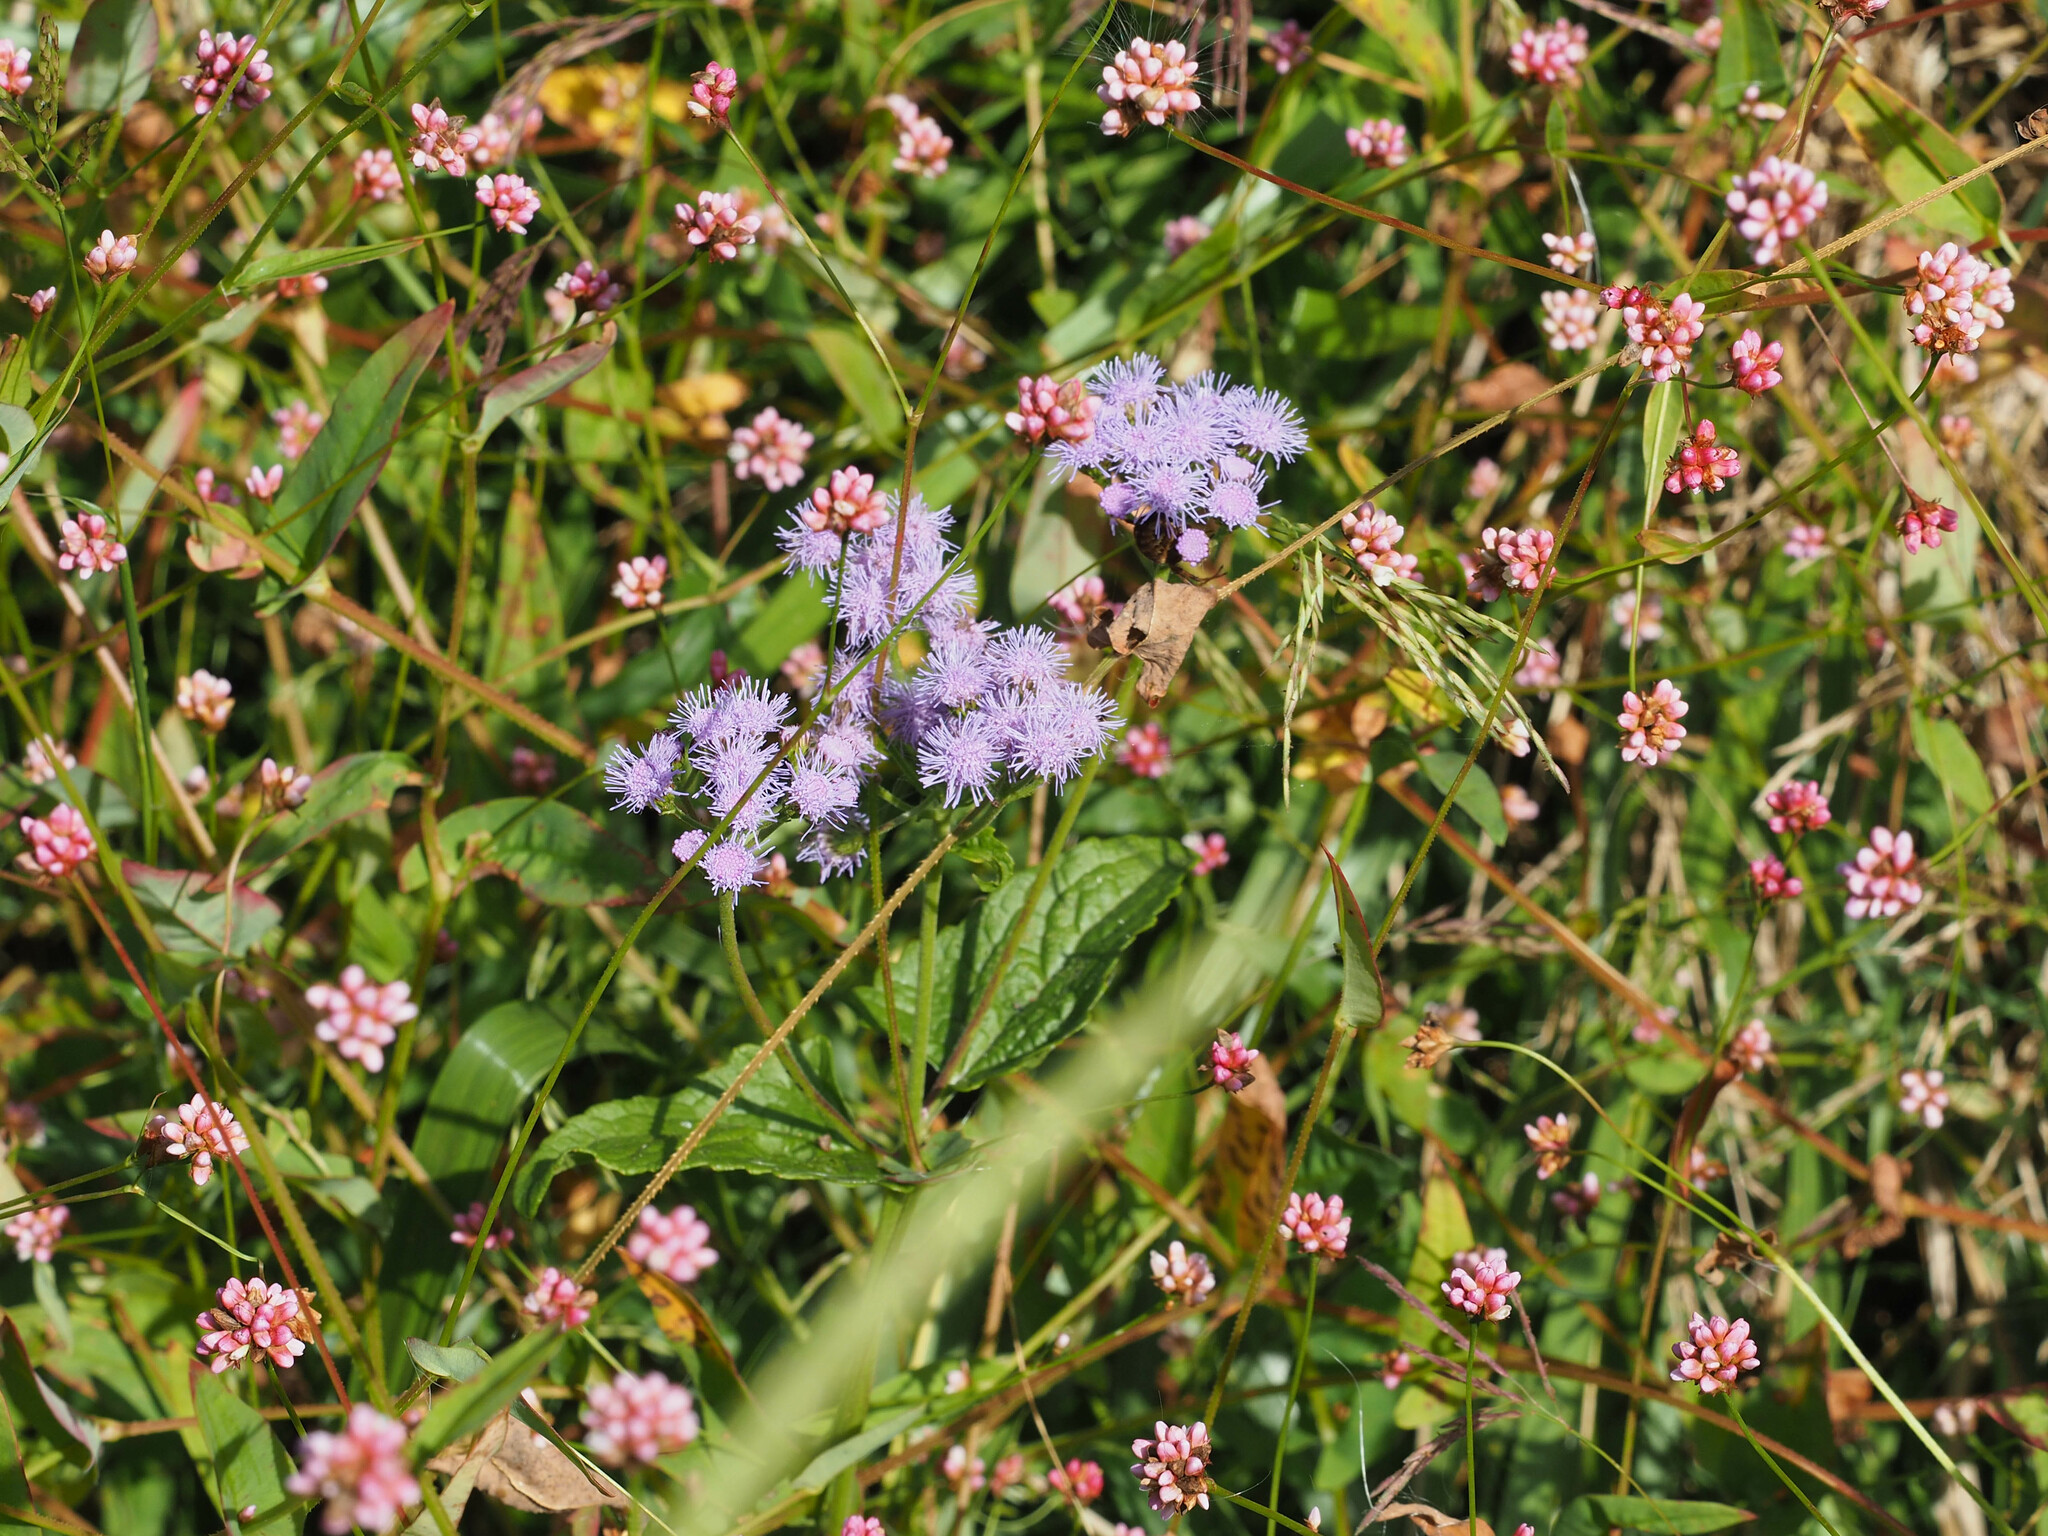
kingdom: Plantae
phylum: Tracheophyta
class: Magnoliopsida
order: Asterales
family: Asteraceae
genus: Conoclinium
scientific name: Conoclinium coelestinum
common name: Blue mistflower
